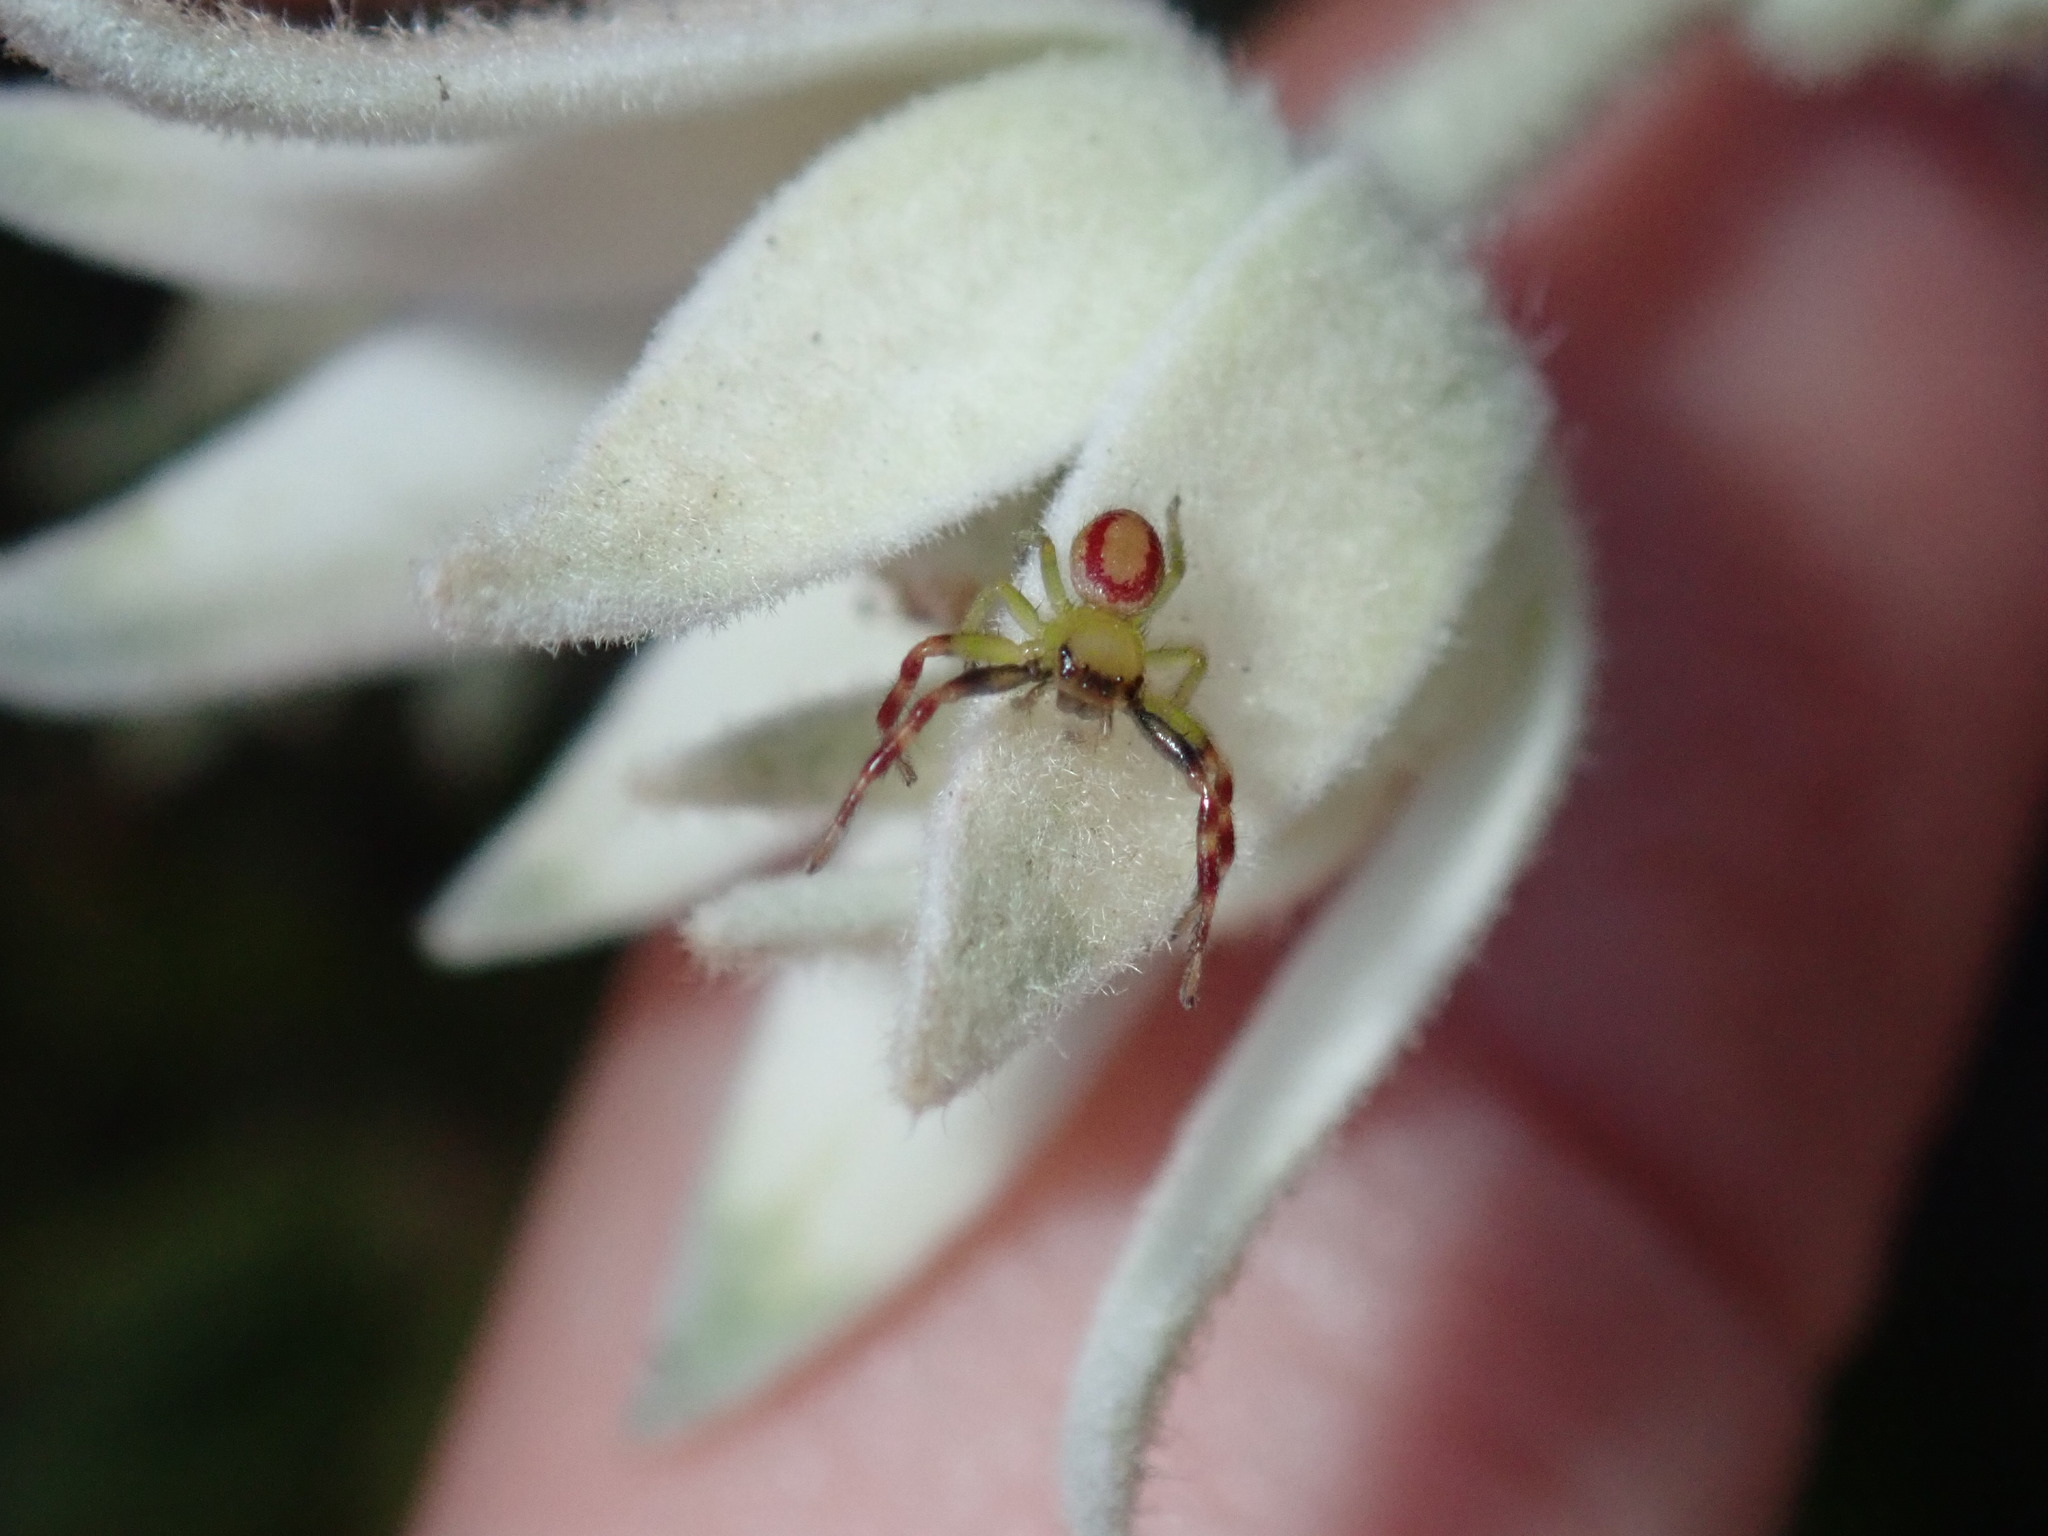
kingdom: Animalia
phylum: Arthropoda
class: Arachnida
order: Araneae
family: Thomisidae
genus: Tharpyna
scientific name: Tharpyna venusta
